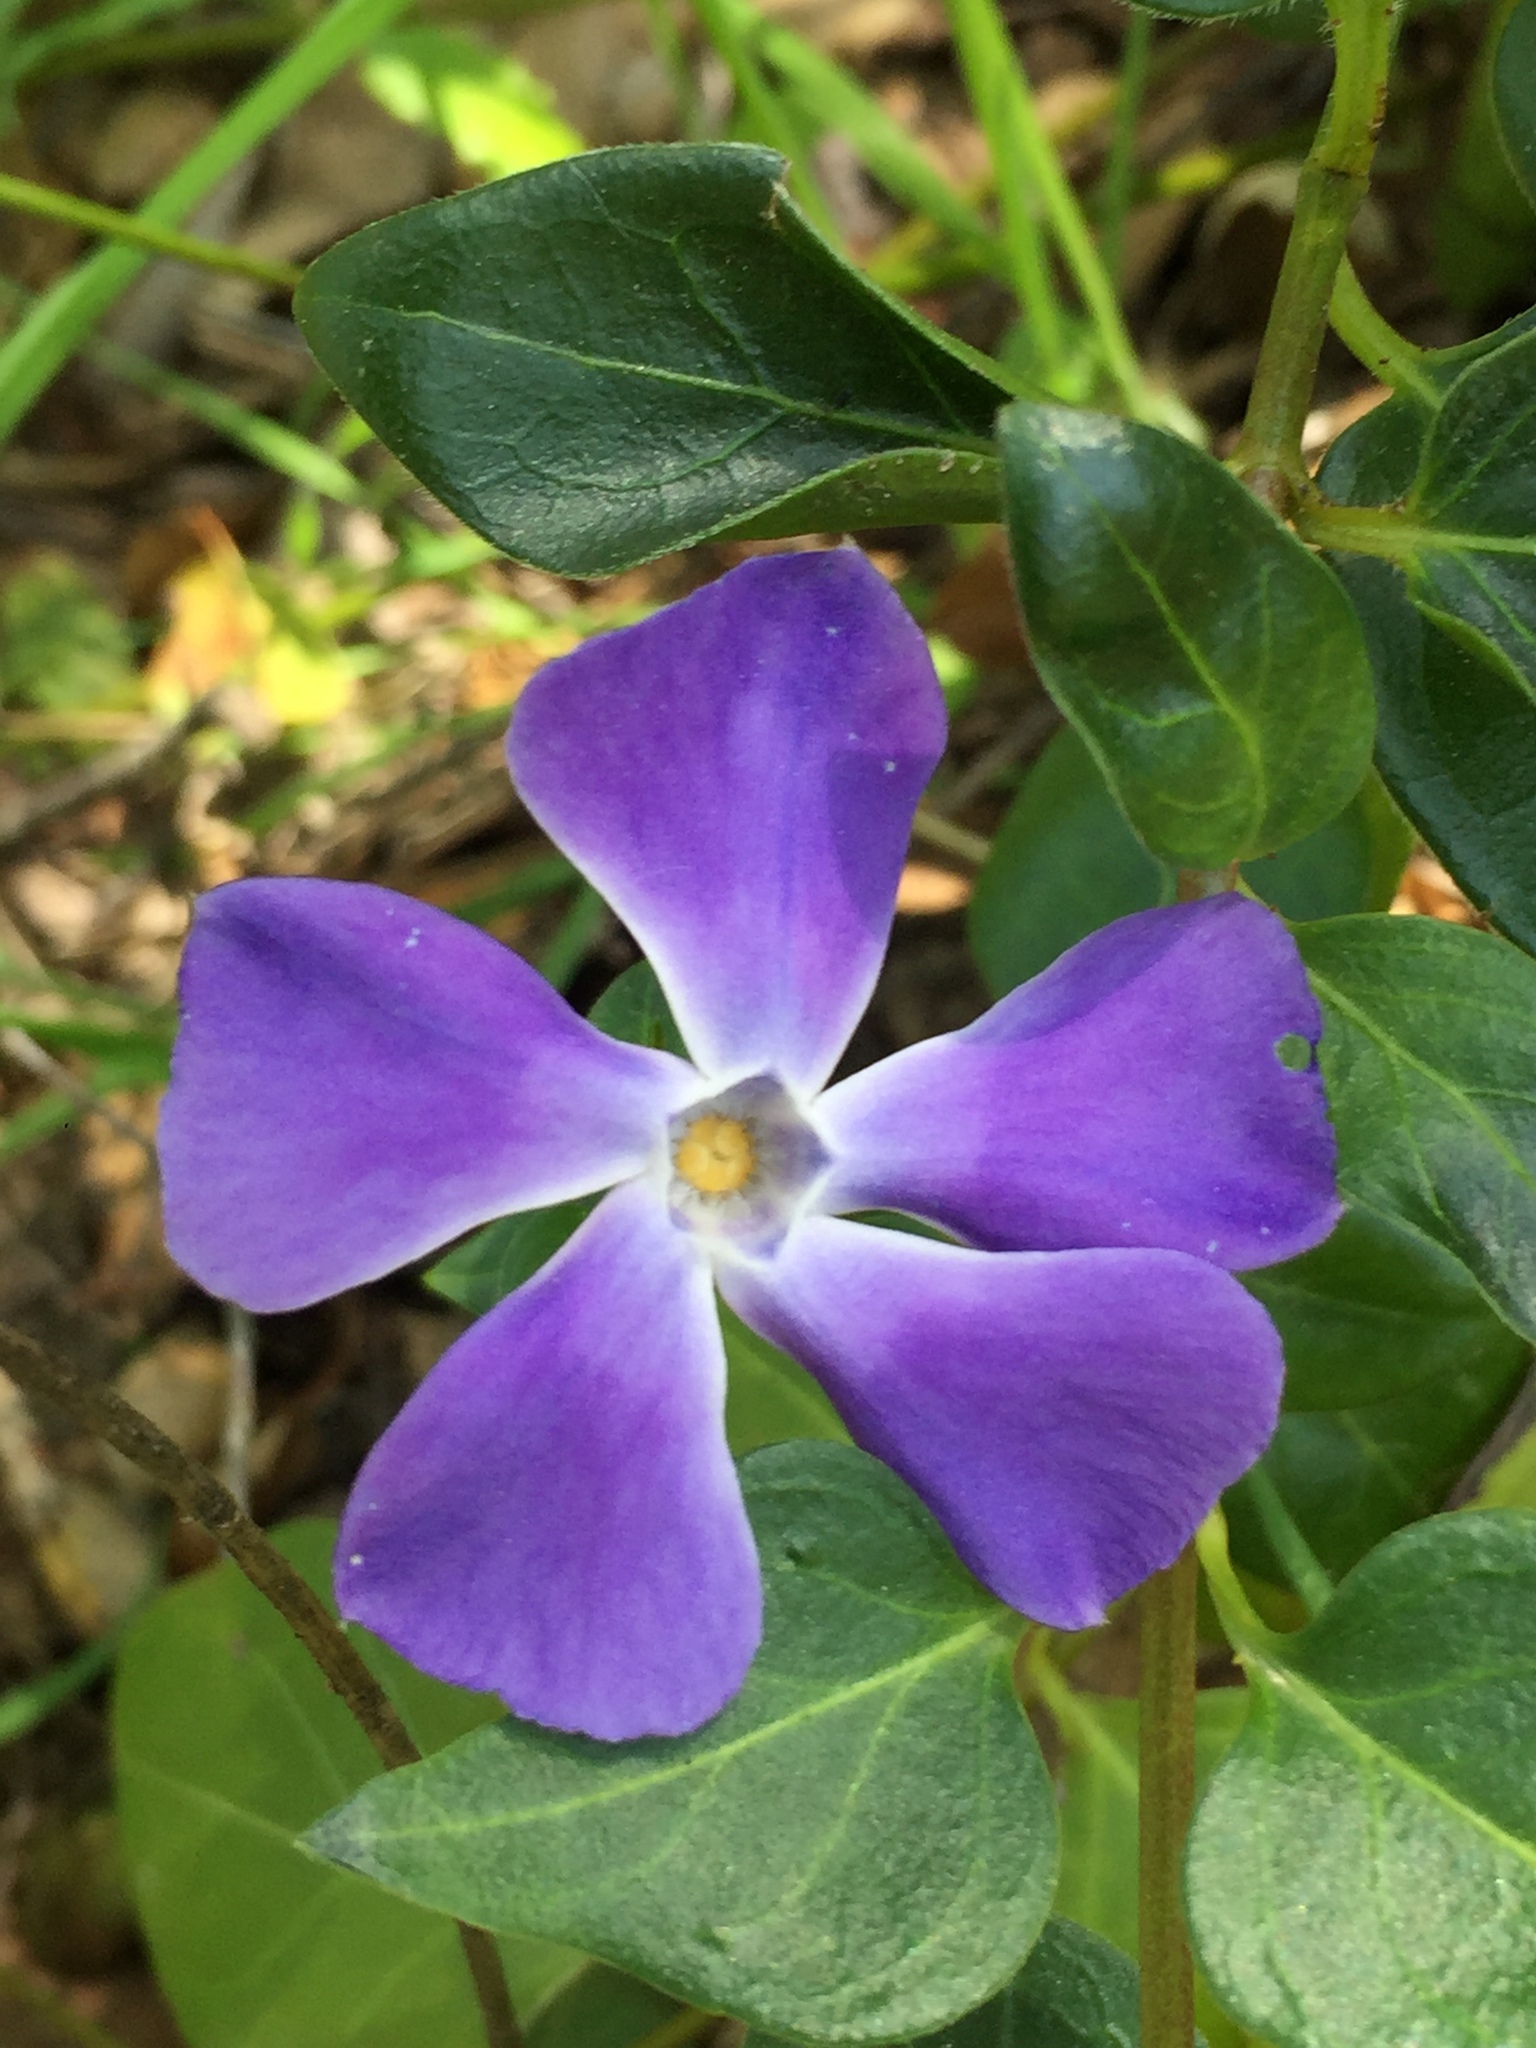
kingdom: Plantae
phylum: Tracheophyta
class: Magnoliopsida
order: Gentianales
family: Apocynaceae
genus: Vinca
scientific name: Vinca major
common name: Greater periwinkle
